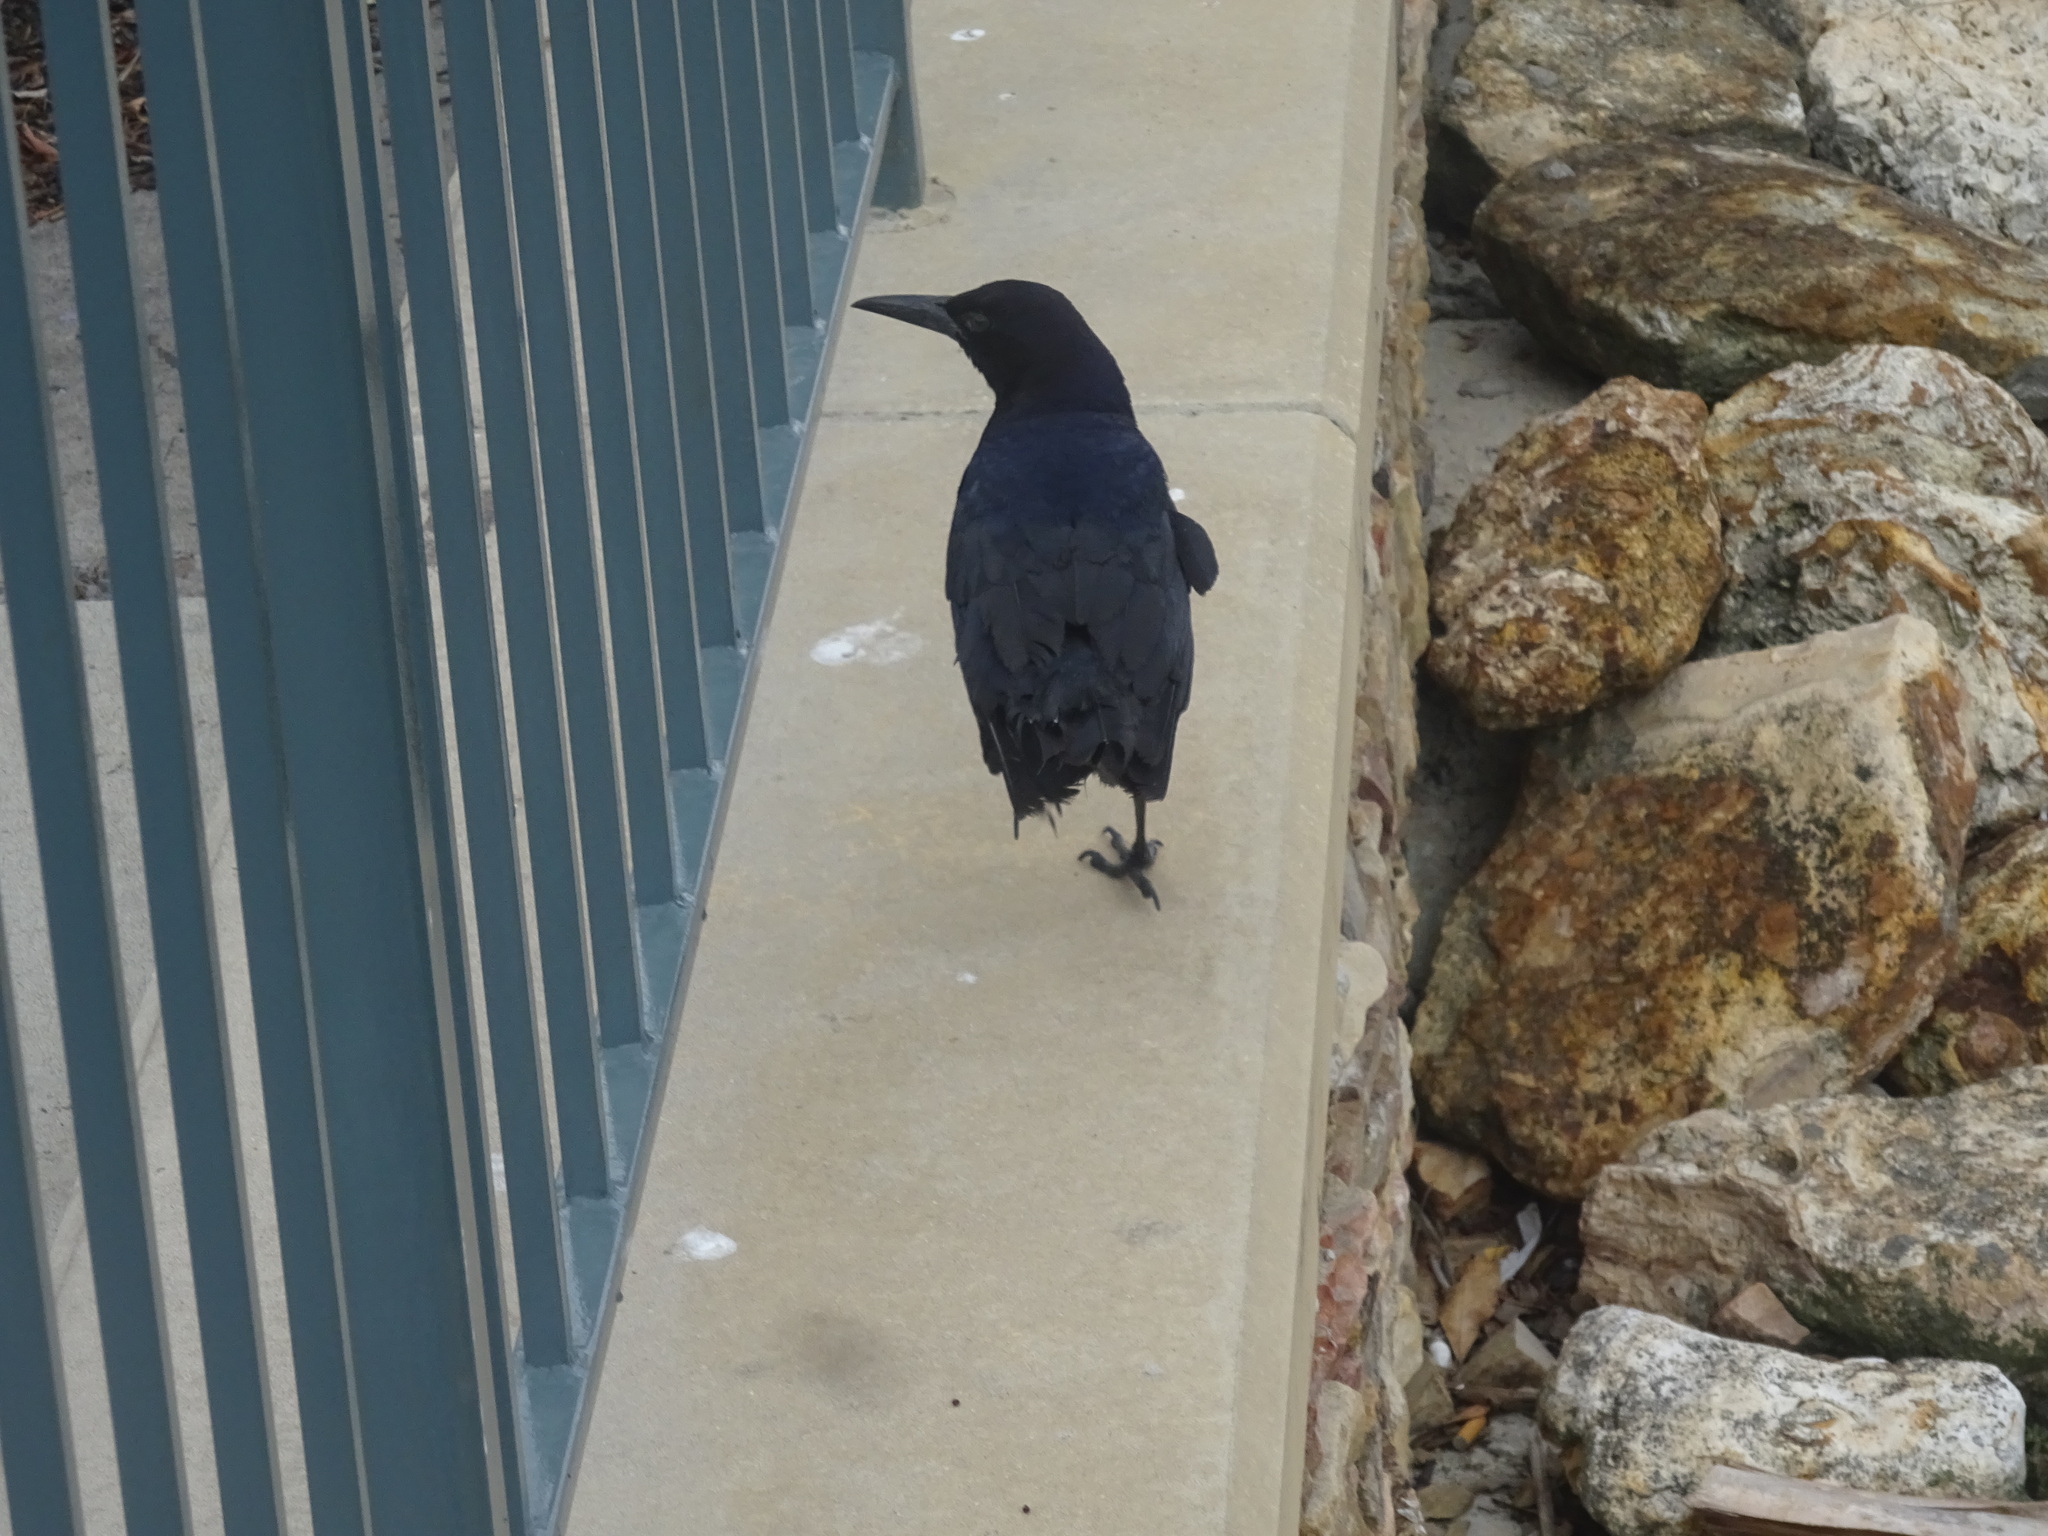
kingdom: Animalia
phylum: Chordata
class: Aves
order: Passeriformes
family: Icteridae
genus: Quiscalus
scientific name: Quiscalus major
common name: Boat-tailed grackle
